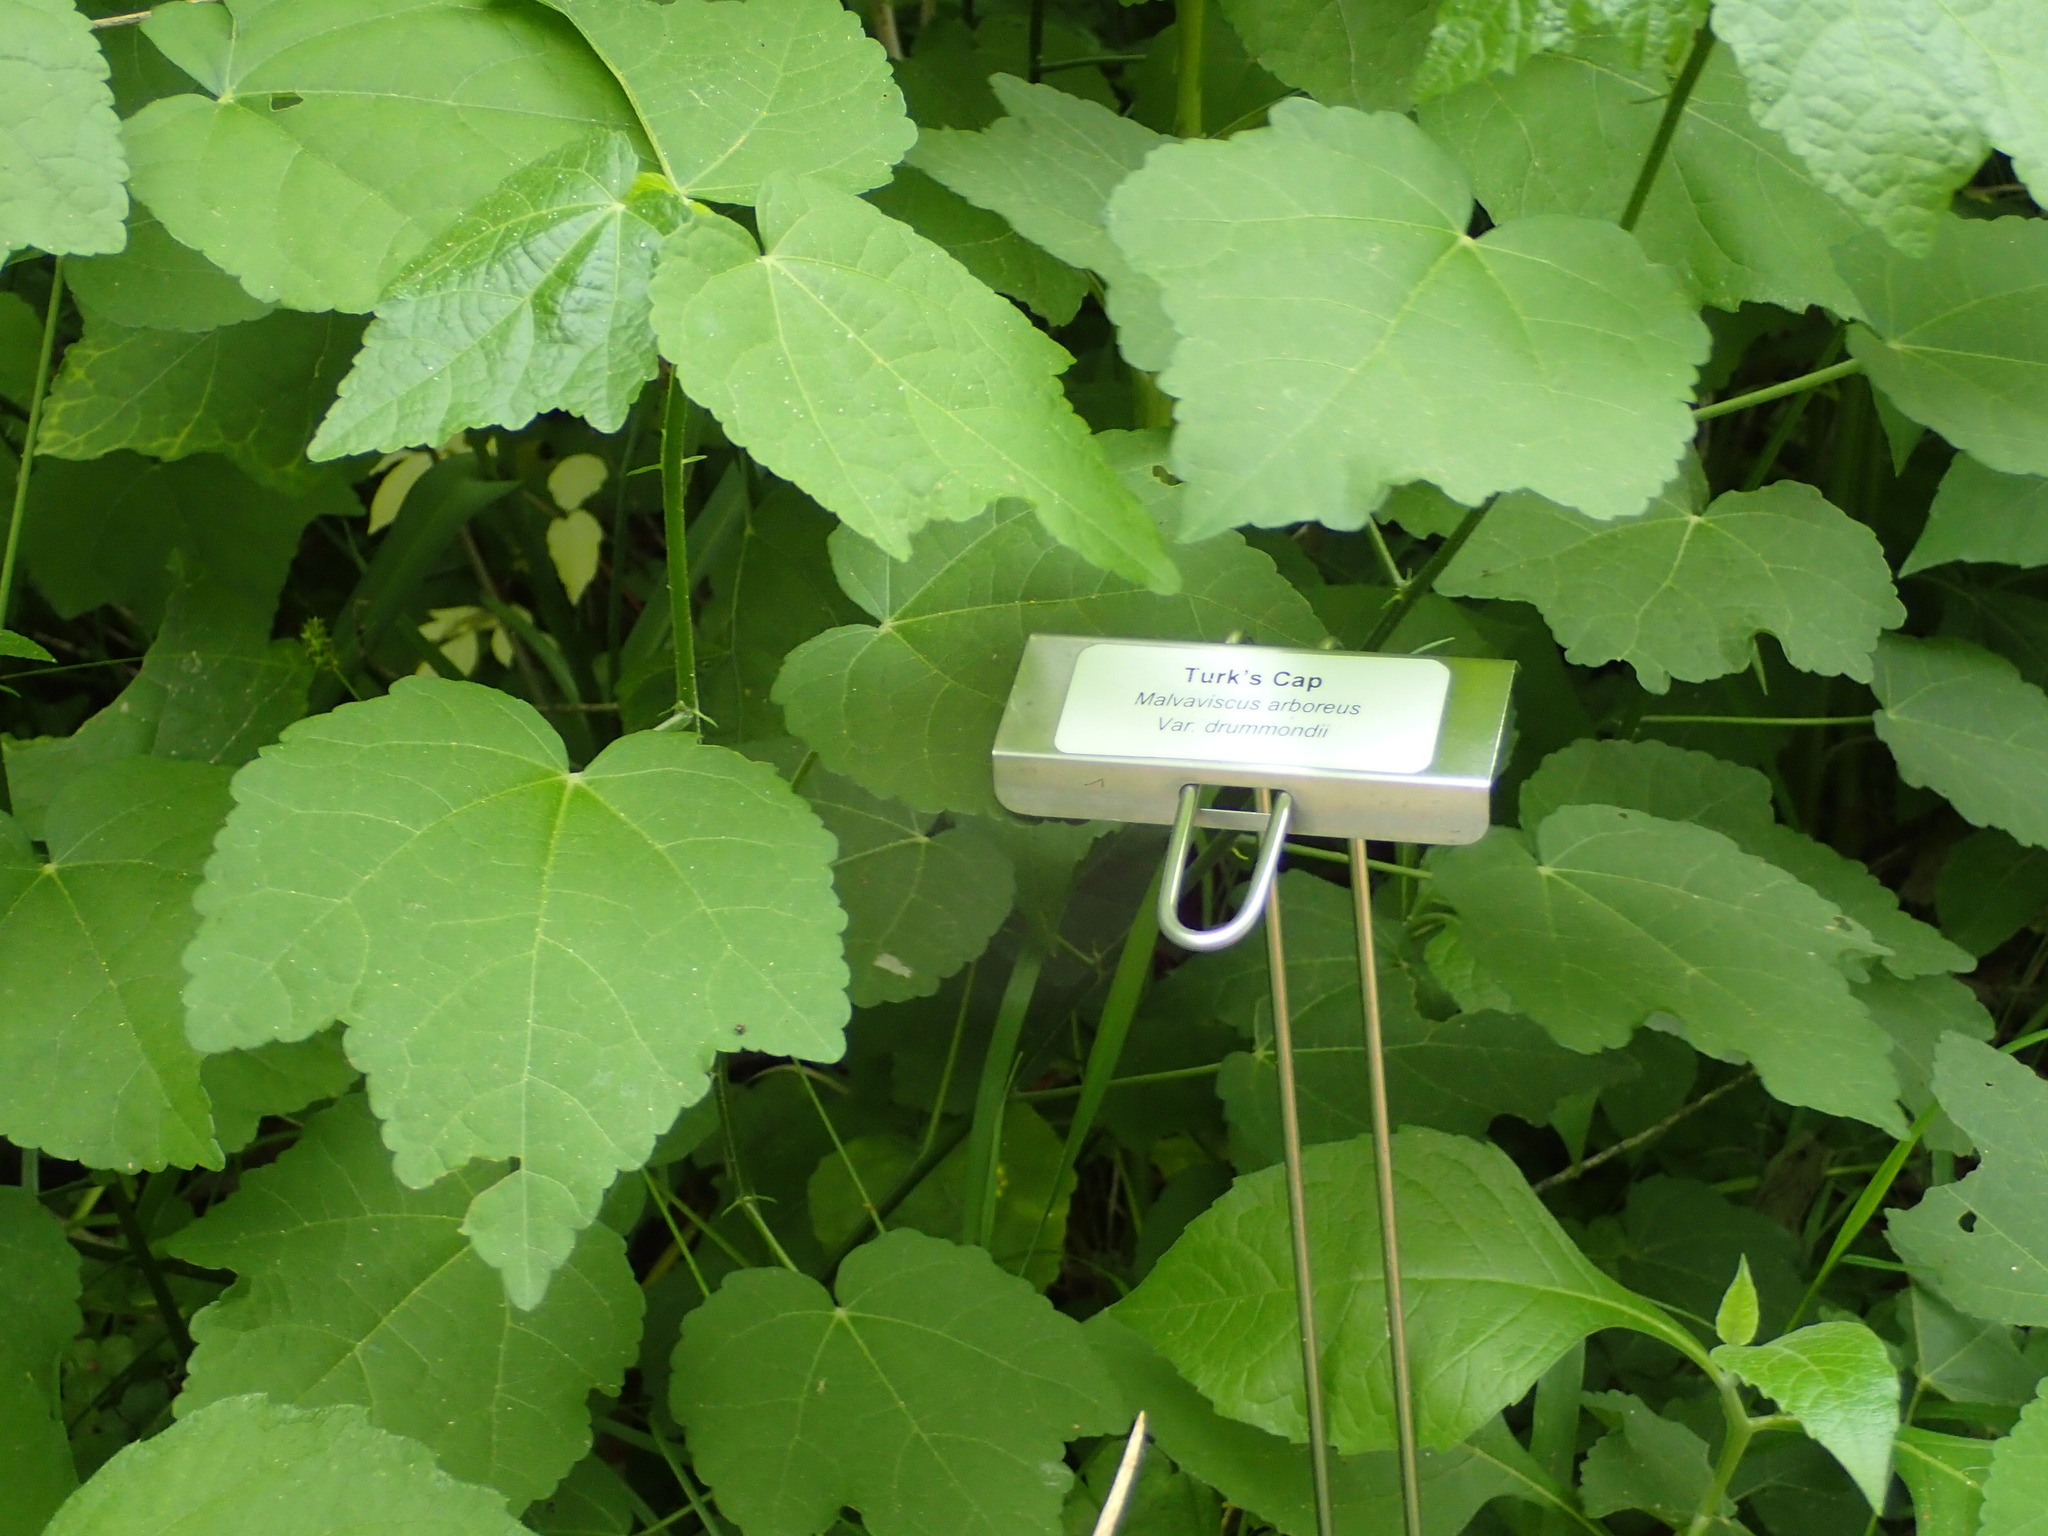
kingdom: Plantae
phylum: Tracheophyta
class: Magnoliopsida
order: Malvales
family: Malvaceae
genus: Malvaviscus
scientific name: Malvaviscus arboreus
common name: Wax mallow
